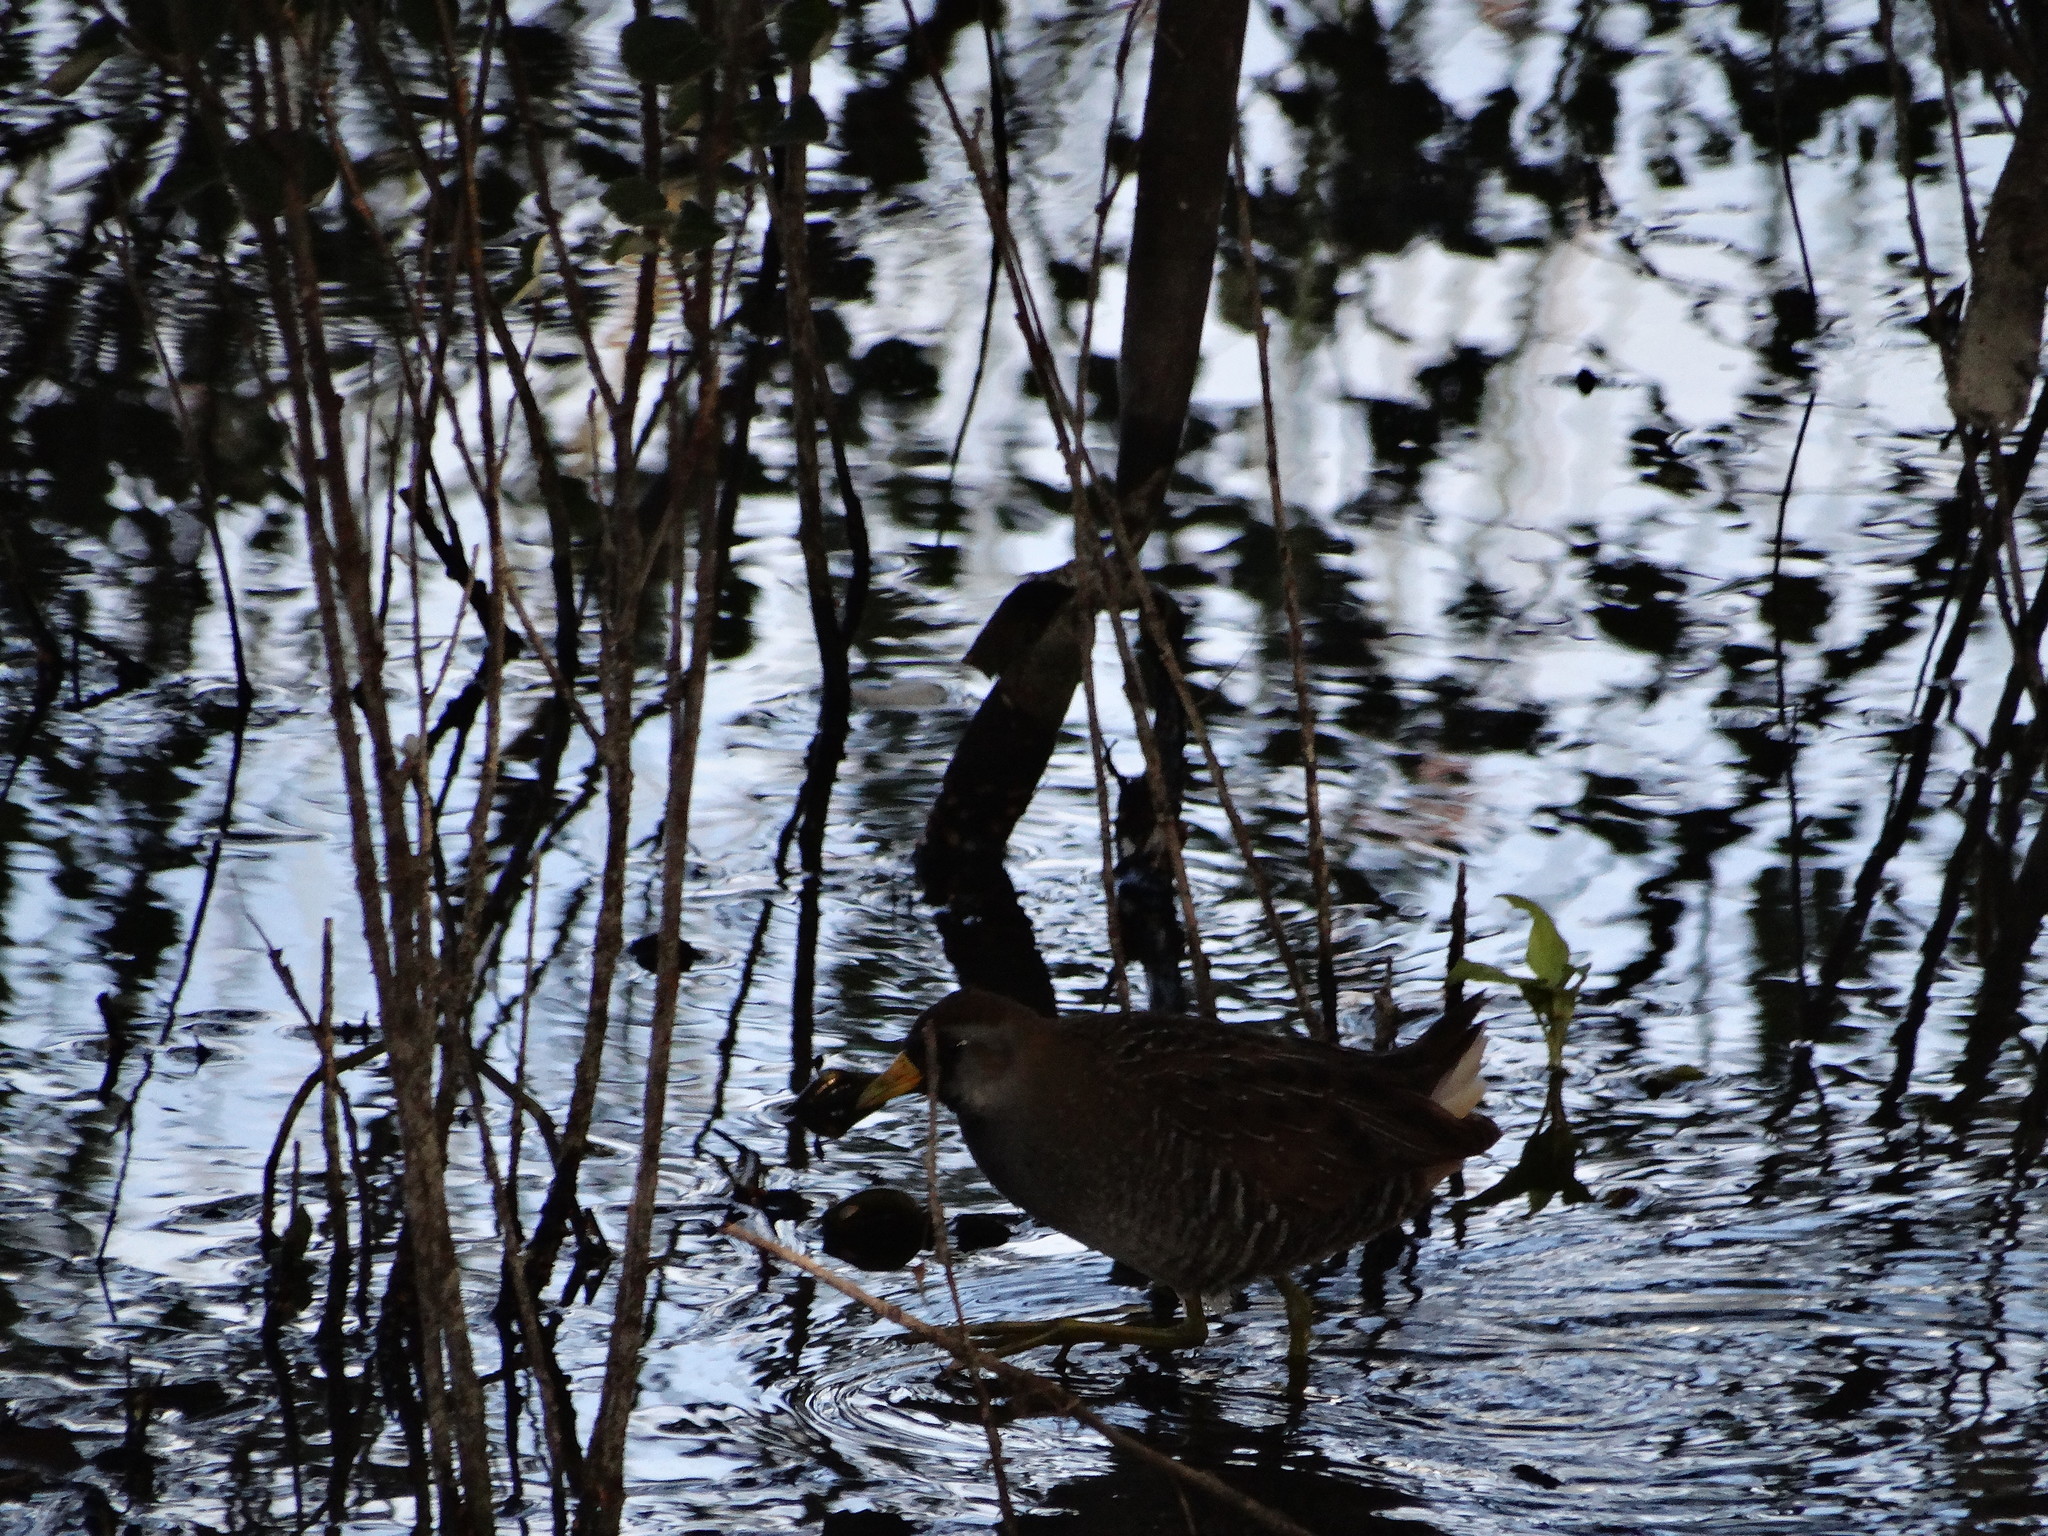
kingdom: Animalia
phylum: Chordata
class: Aves
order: Gruiformes
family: Rallidae
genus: Porzana
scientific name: Porzana carolina
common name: Sora
